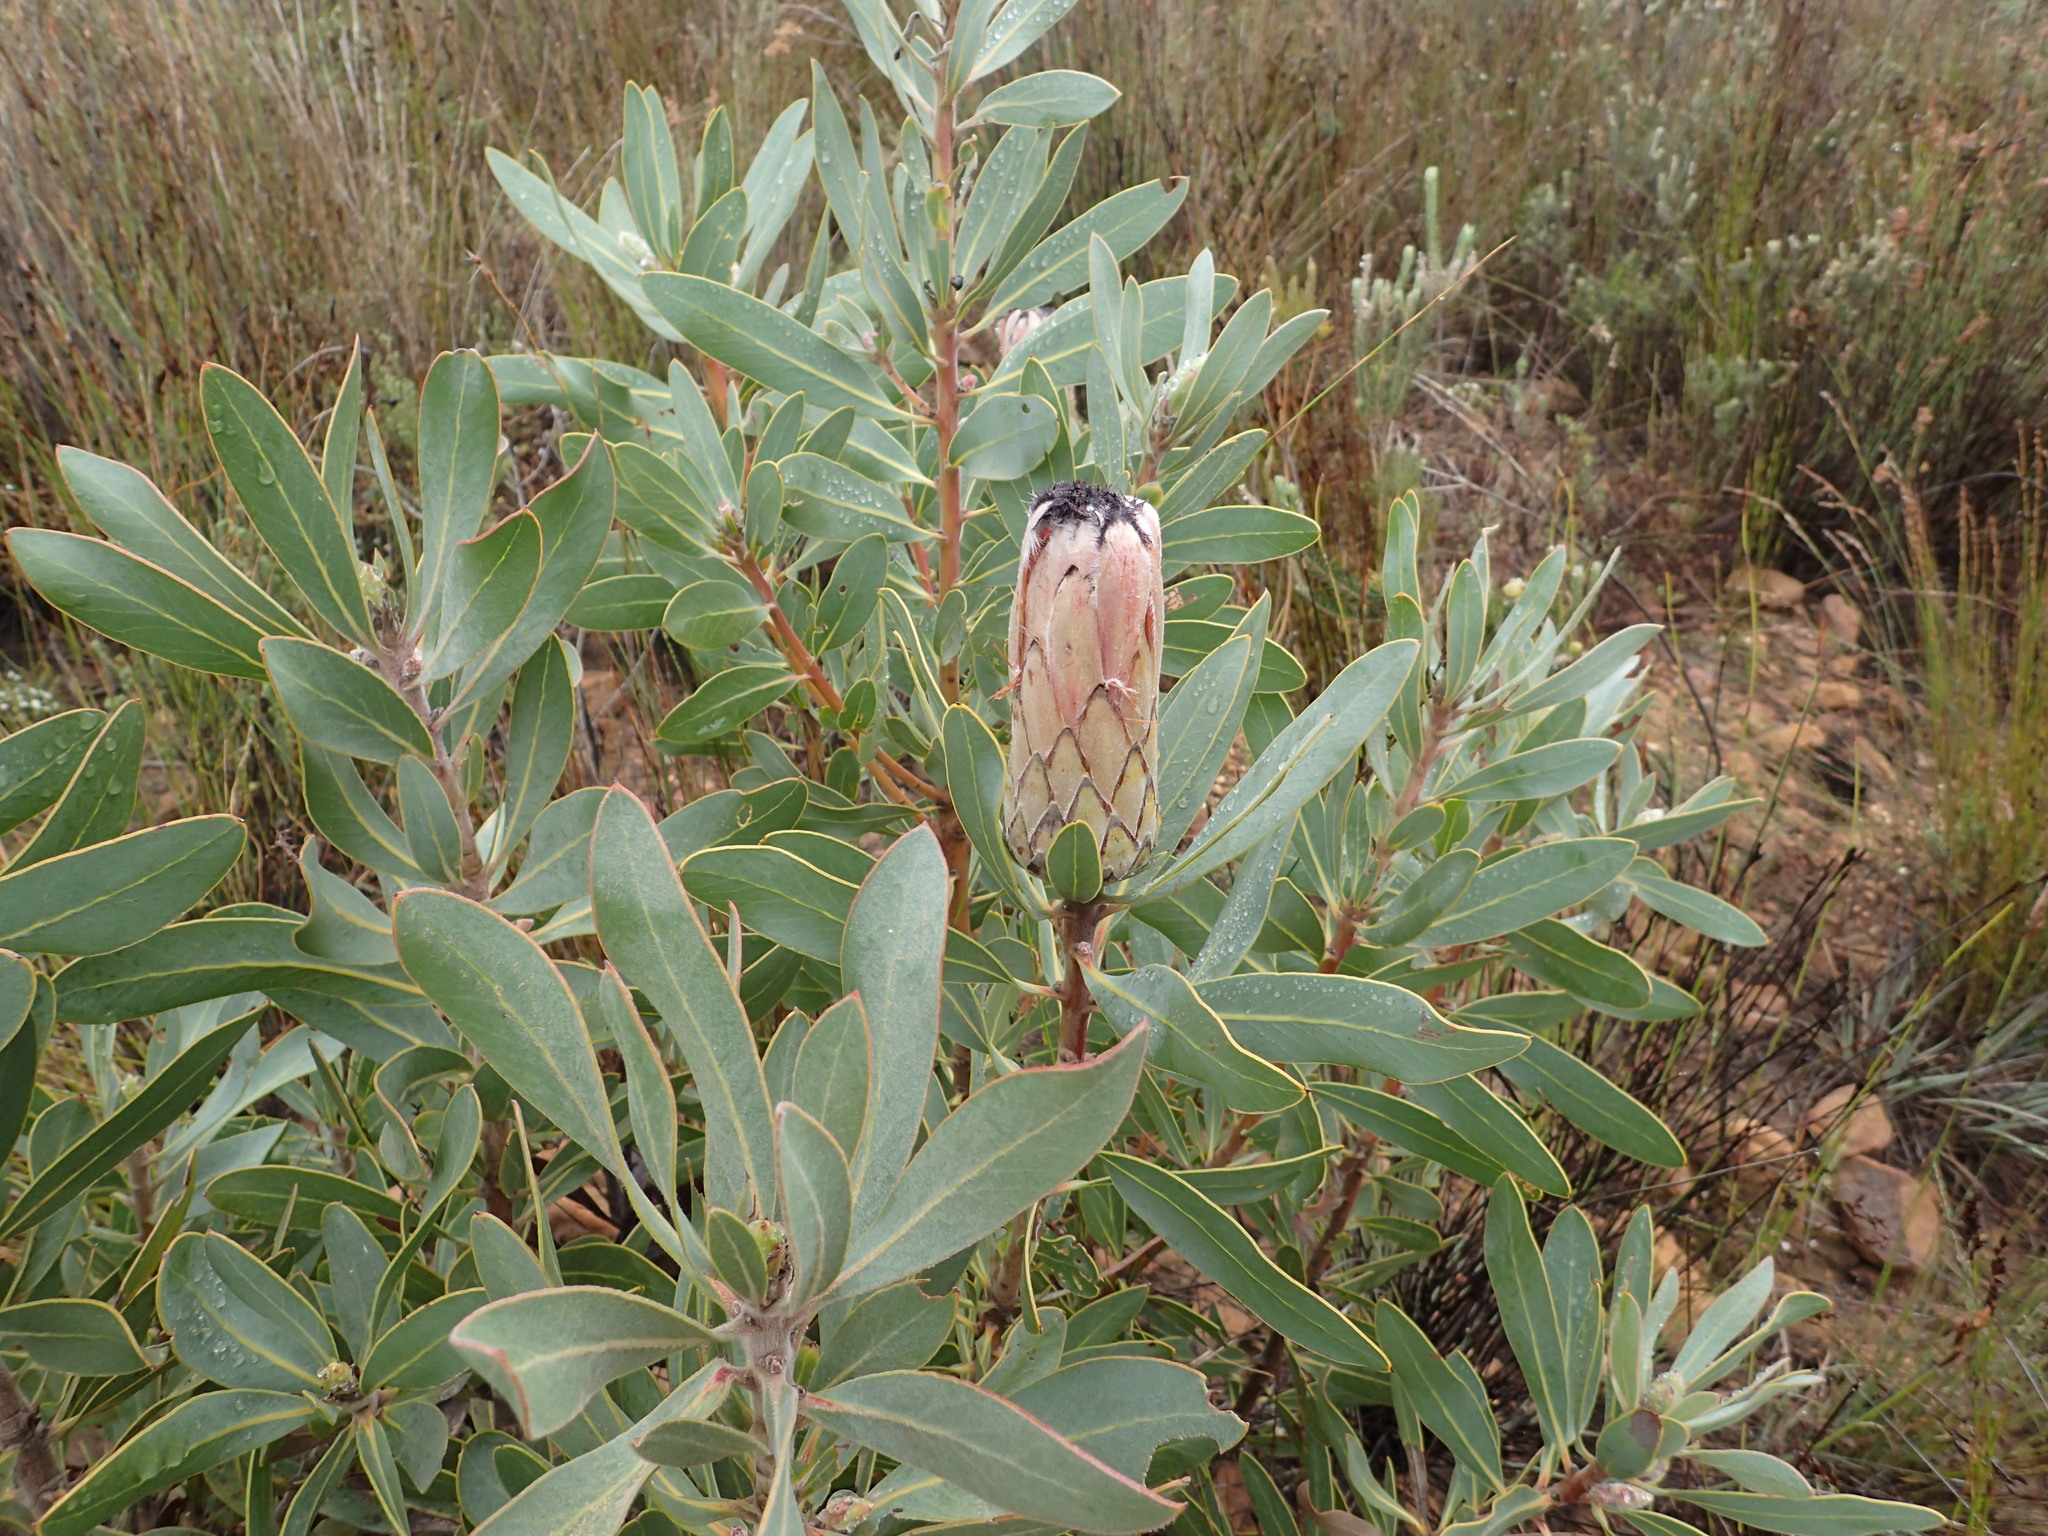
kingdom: Plantae
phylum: Tracheophyta
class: Magnoliopsida
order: Proteales
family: Proteaceae
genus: Protea
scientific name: Protea laurifolia
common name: Grey-leaf sugarbsh
